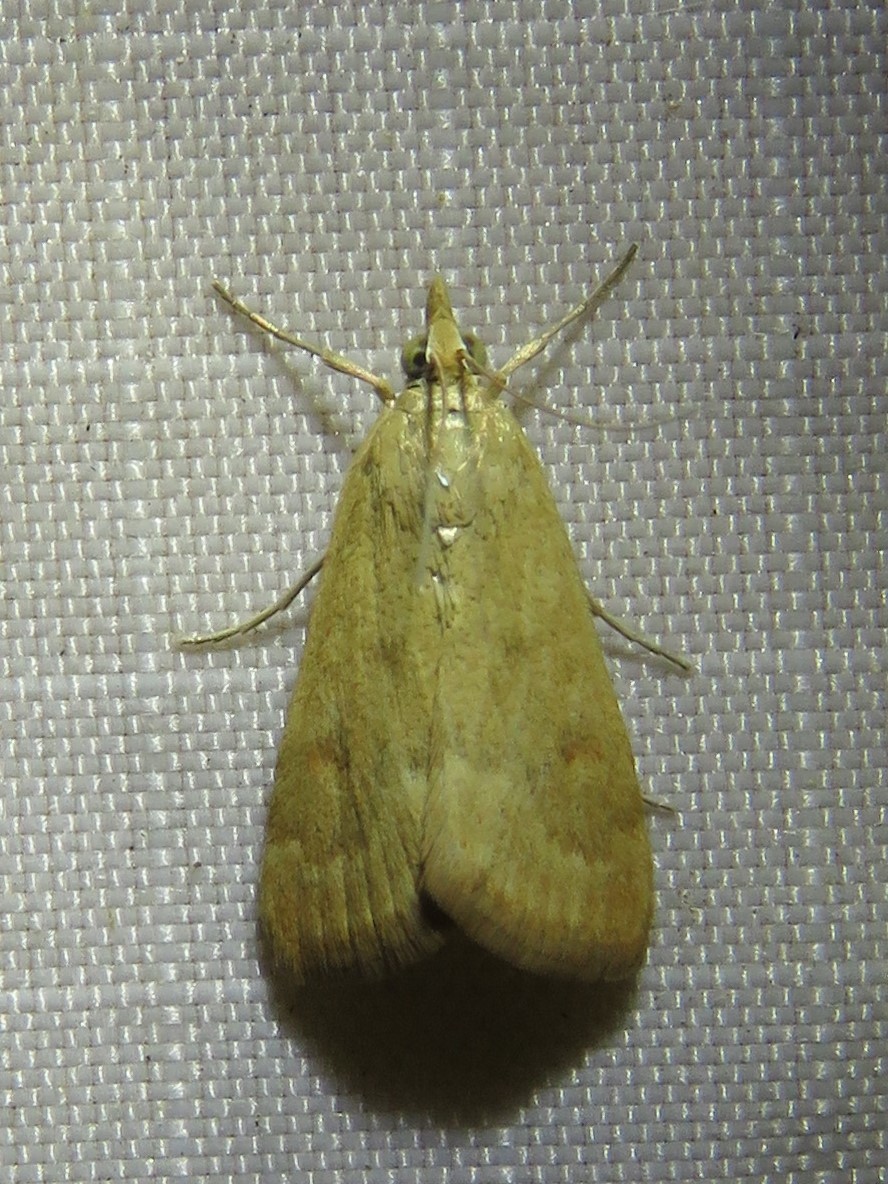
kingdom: Animalia
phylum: Arthropoda
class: Insecta
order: Lepidoptera
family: Crambidae
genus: Achyra
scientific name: Achyra rantalis
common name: Garden webworm
